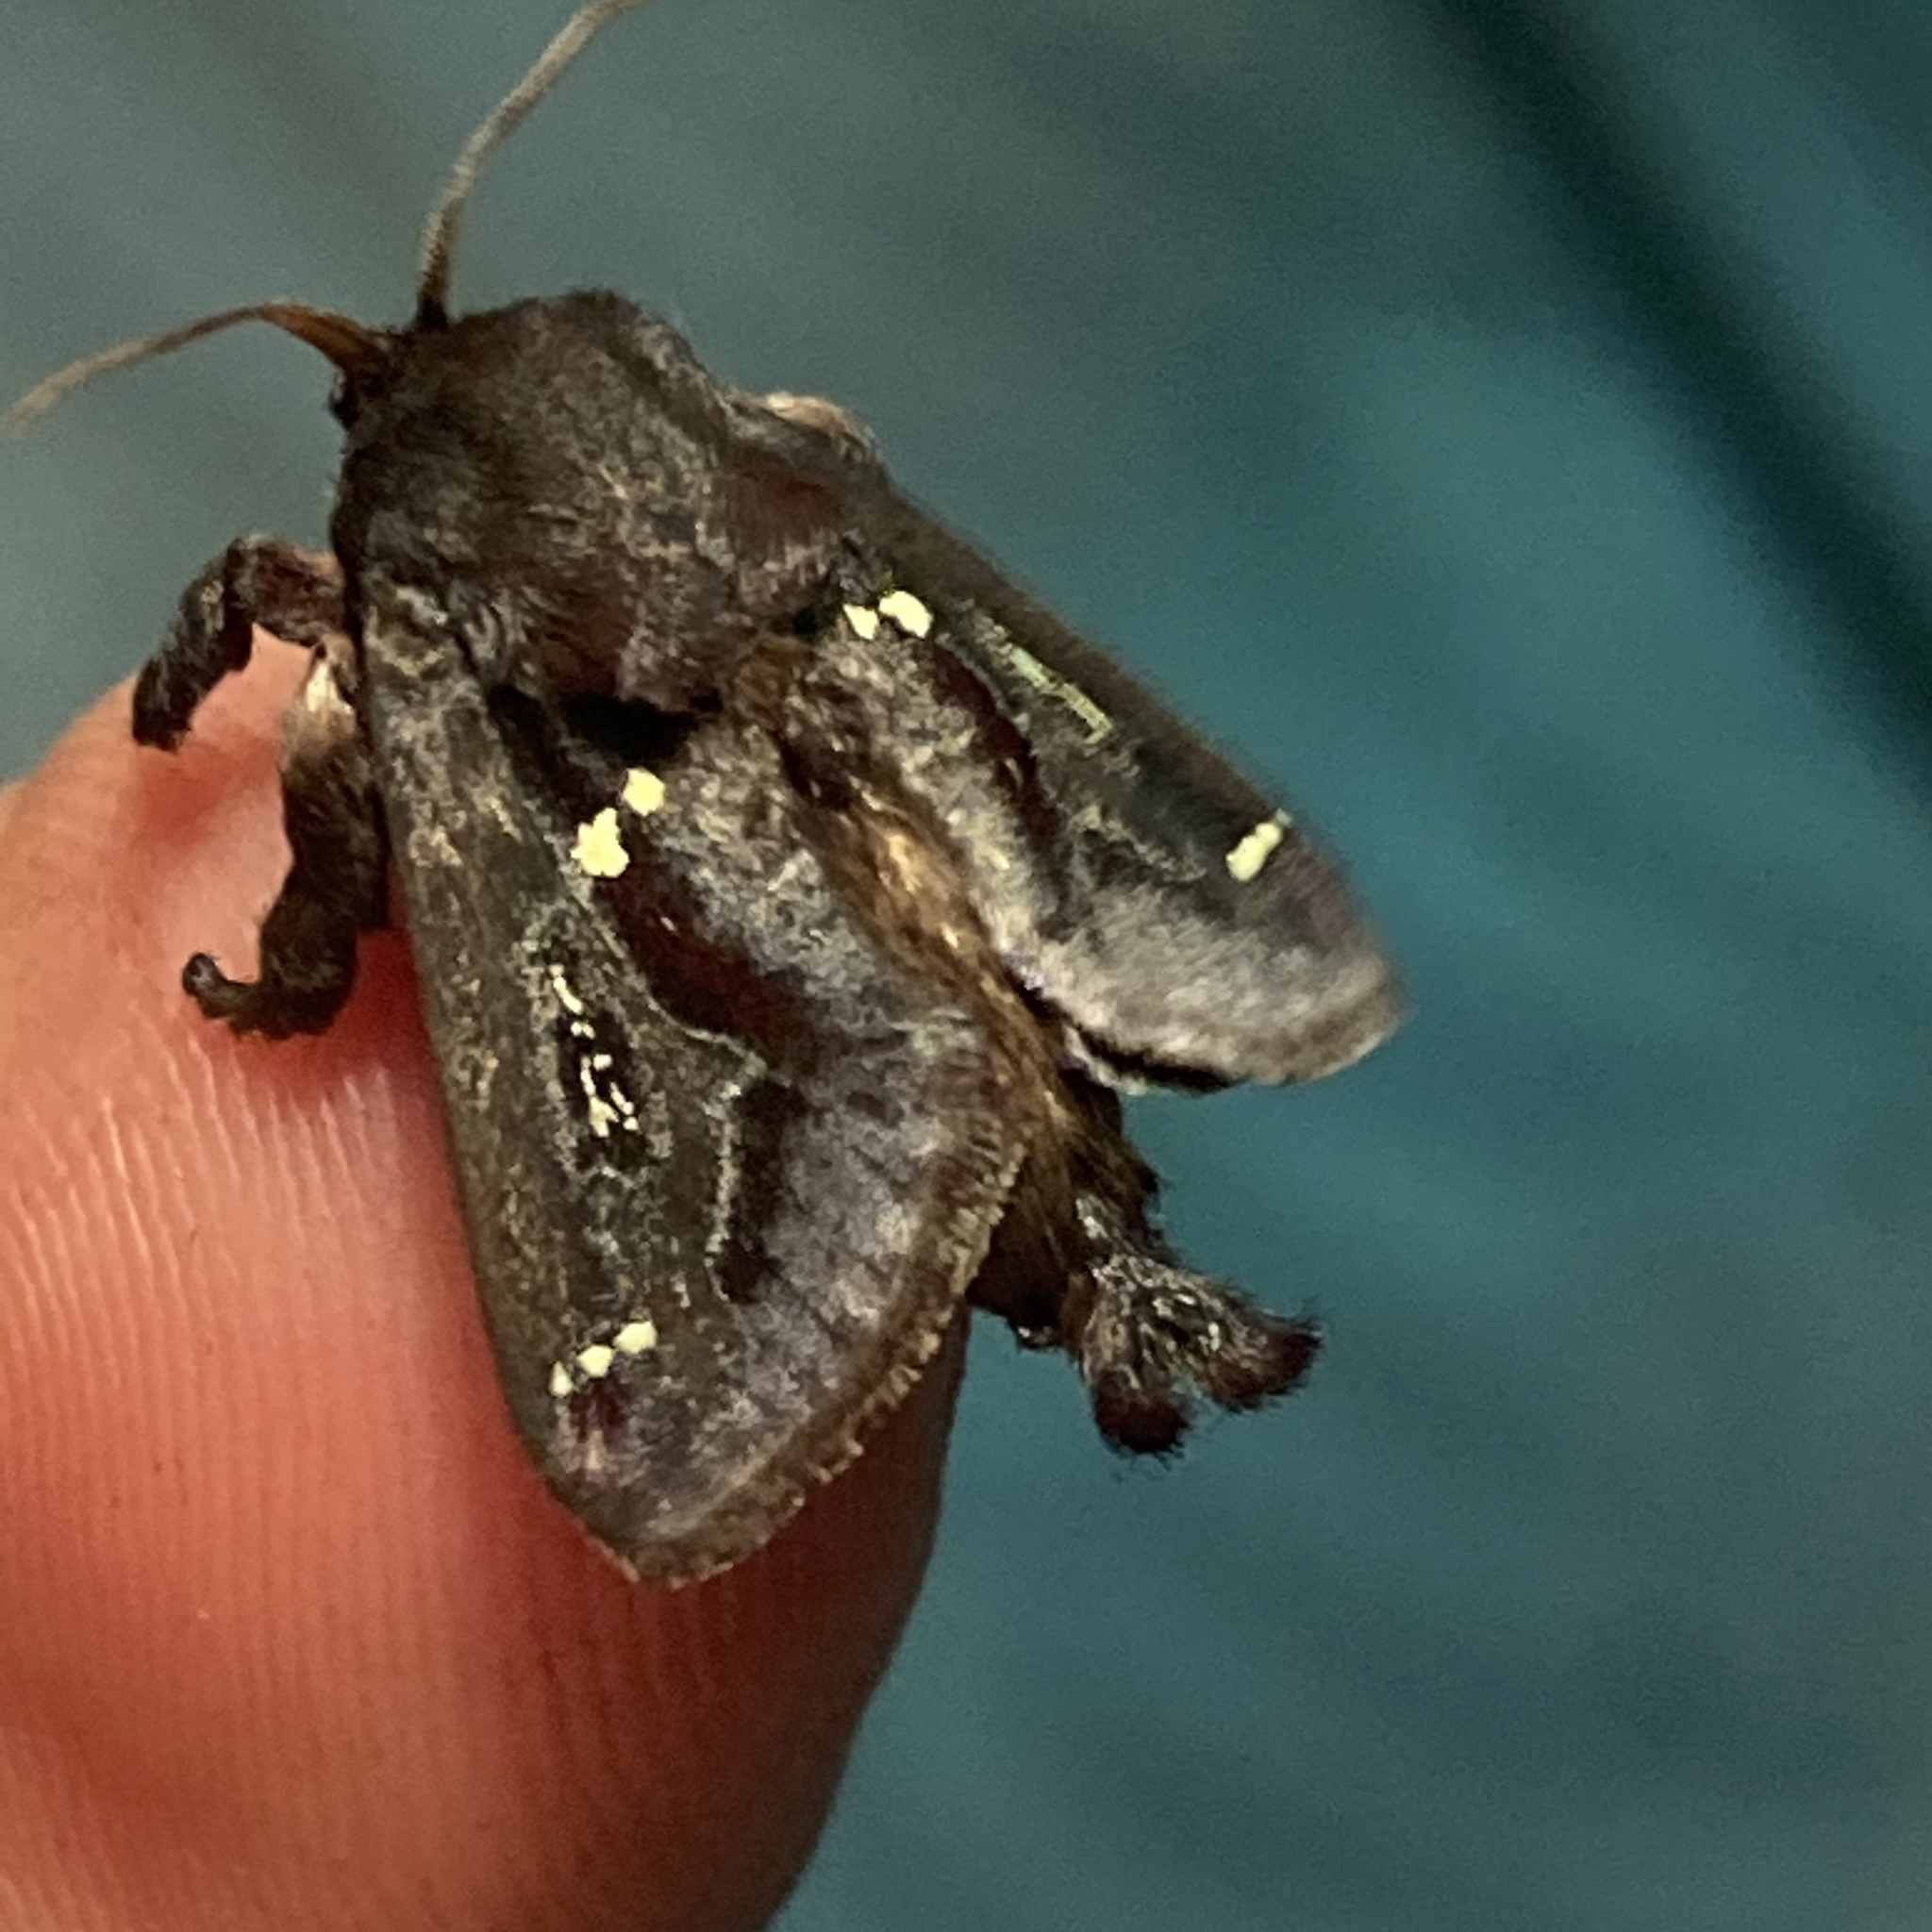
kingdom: Animalia
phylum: Arthropoda
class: Insecta
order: Lepidoptera
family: Limacodidae
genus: Acharia
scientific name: Acharia stimulea
